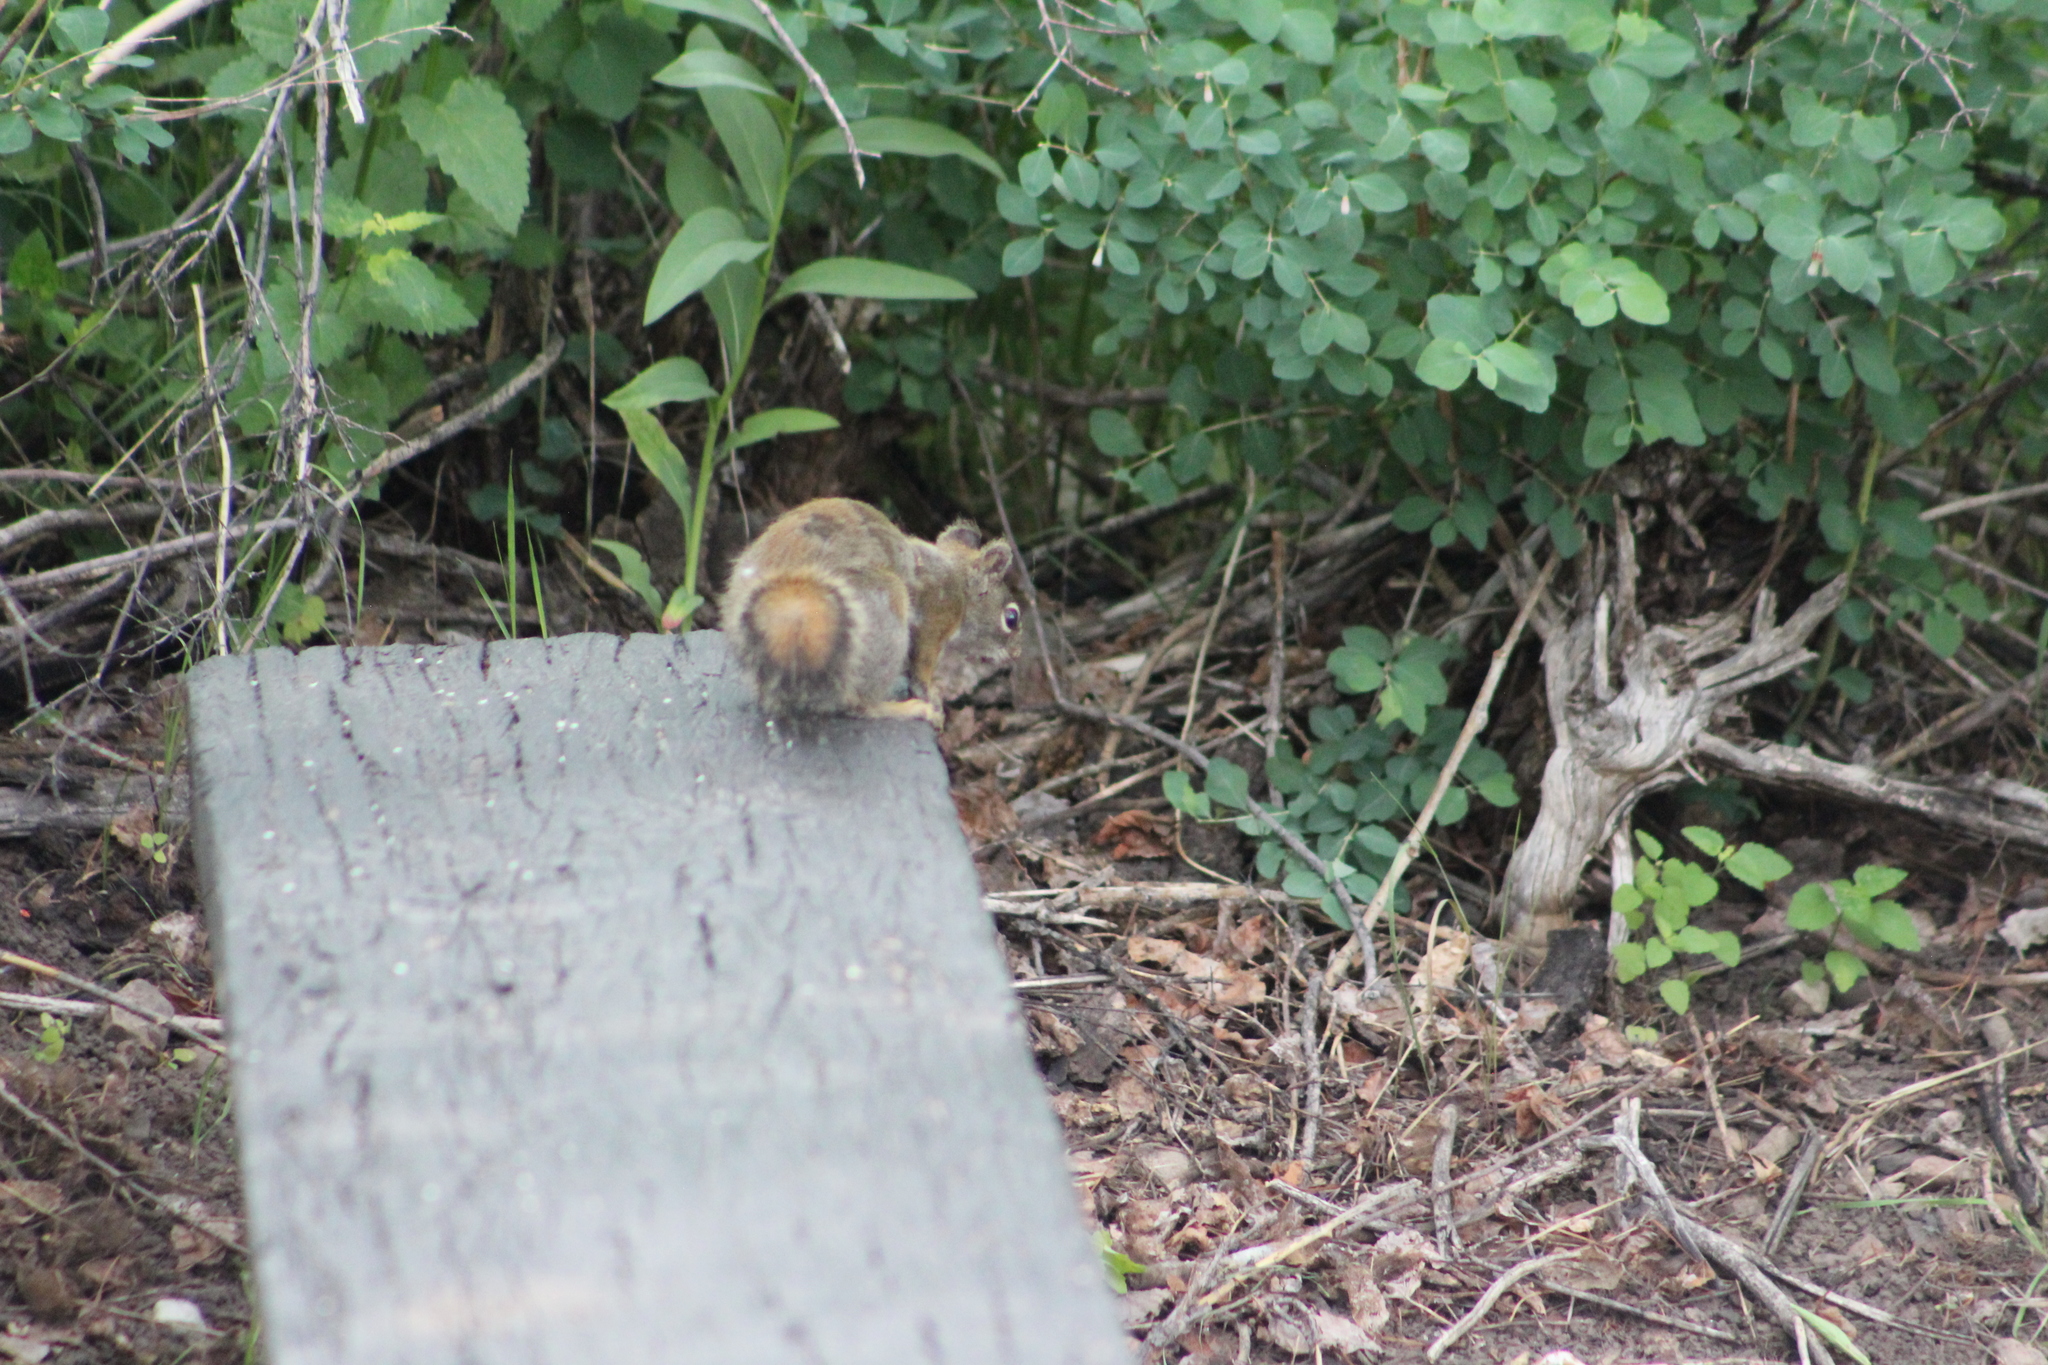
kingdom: Animalia
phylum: Chordata
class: Mammalia
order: Rodentia
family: Sciuridae
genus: Tamiasciurus
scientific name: Tamiasciurus hudsonicus
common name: Red squirrel
